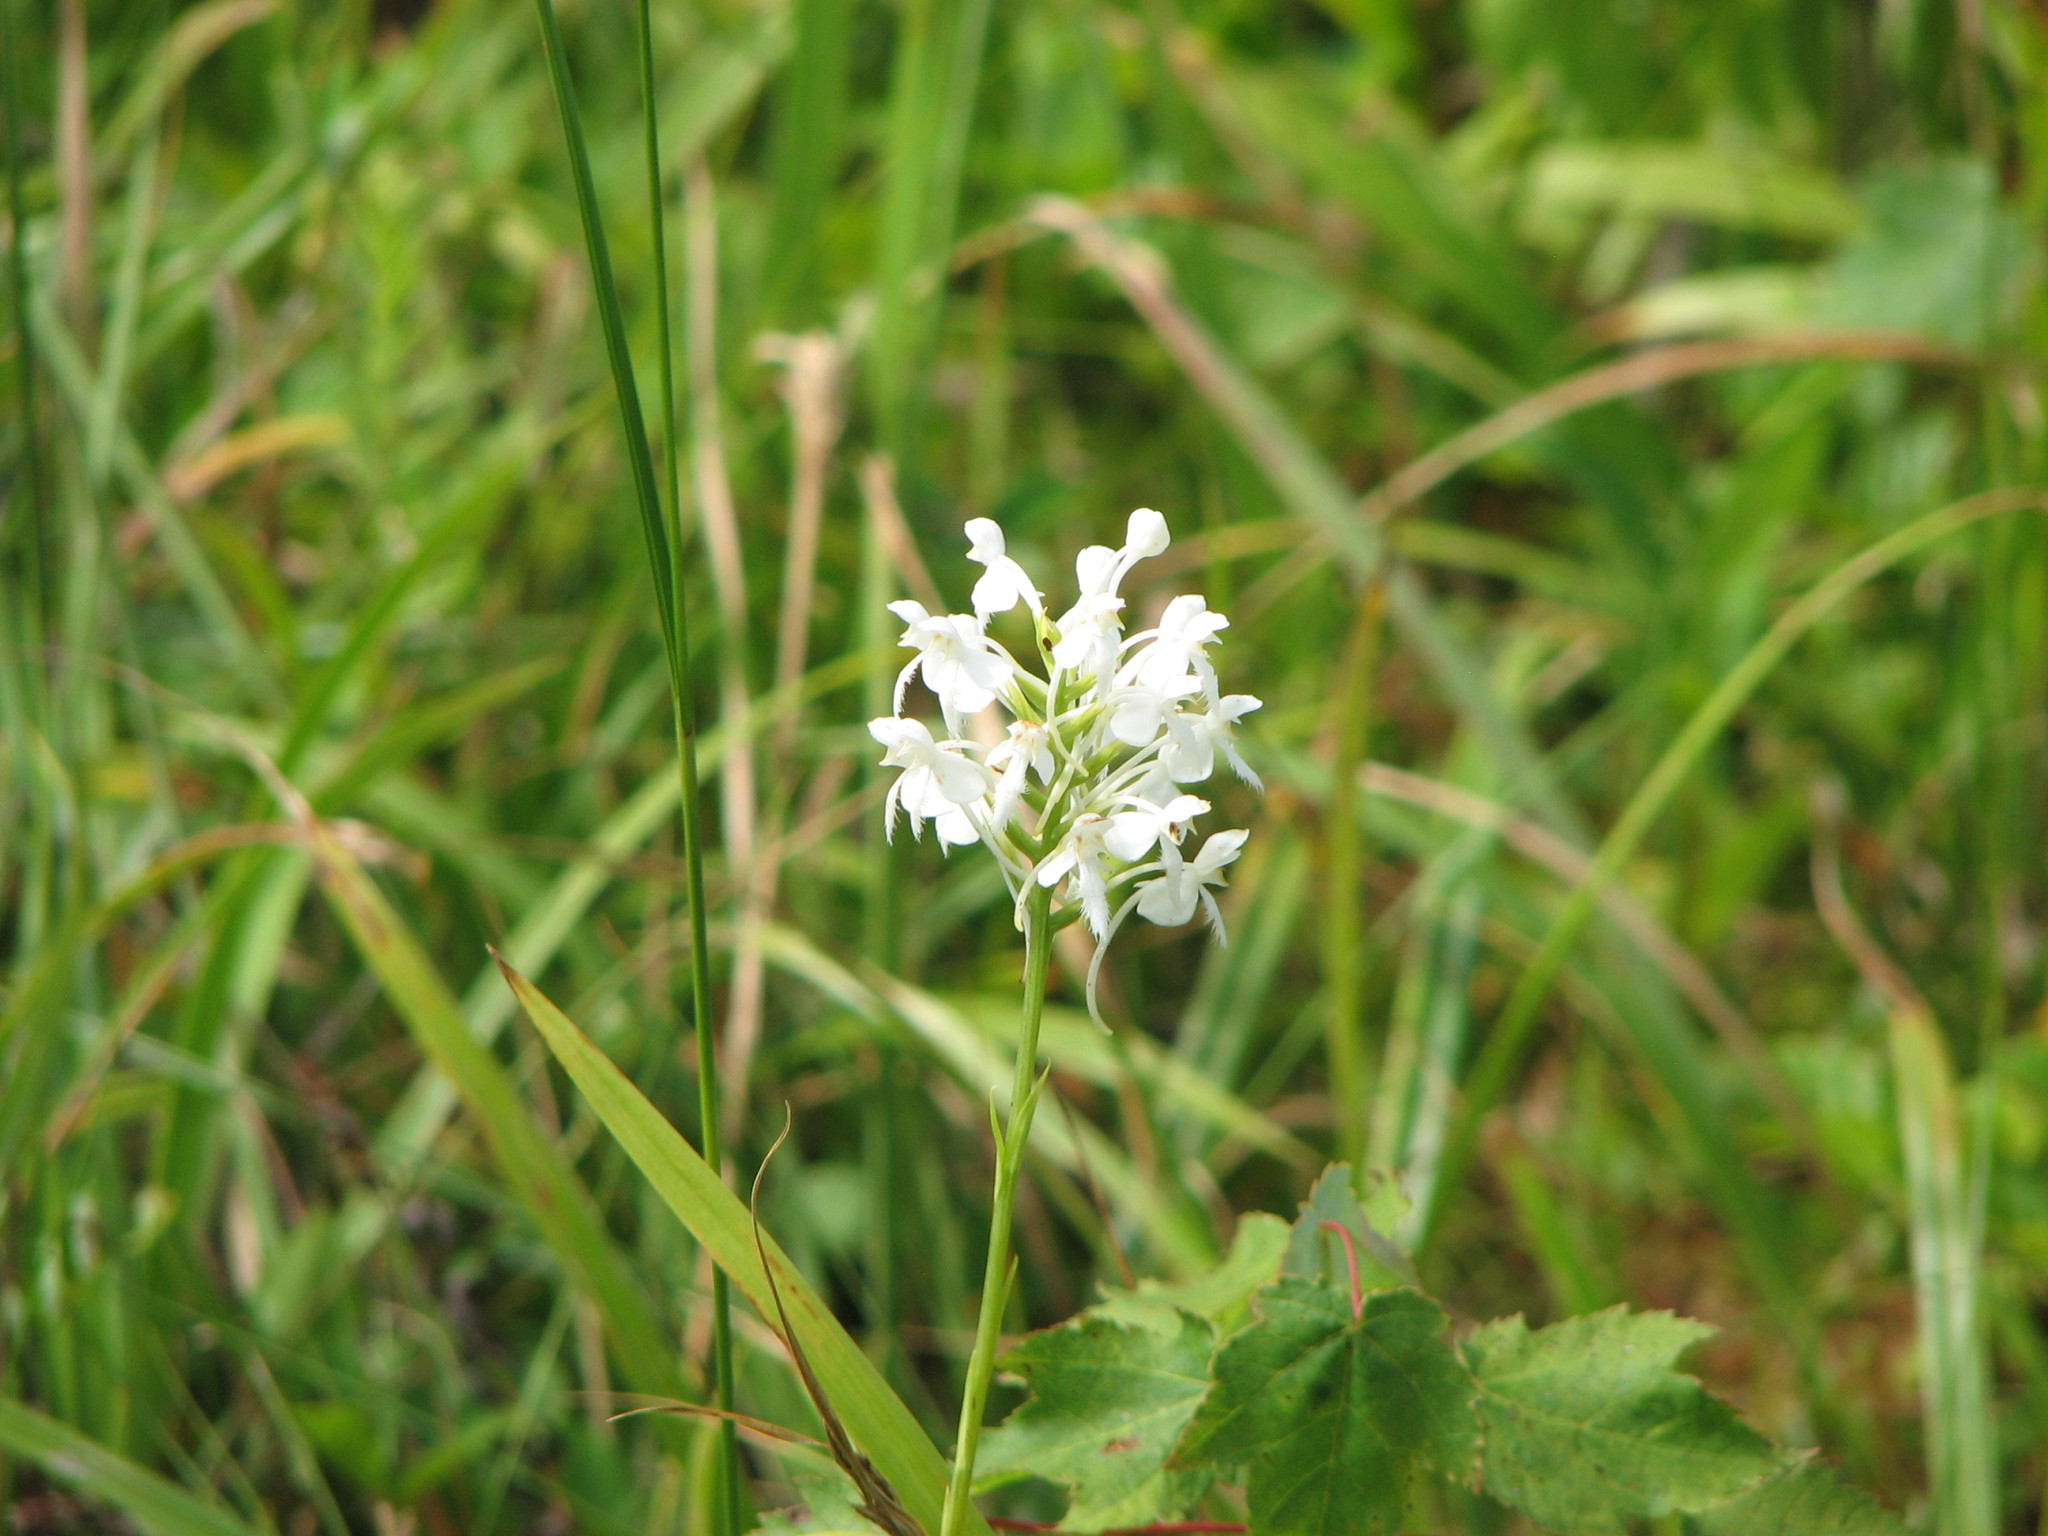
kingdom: Plantae
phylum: Tracheophyta
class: Liliopsida
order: Asparagales
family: Orchidaceae
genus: Platanthera
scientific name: Platanthera blephariglottis
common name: White fringed orchid
